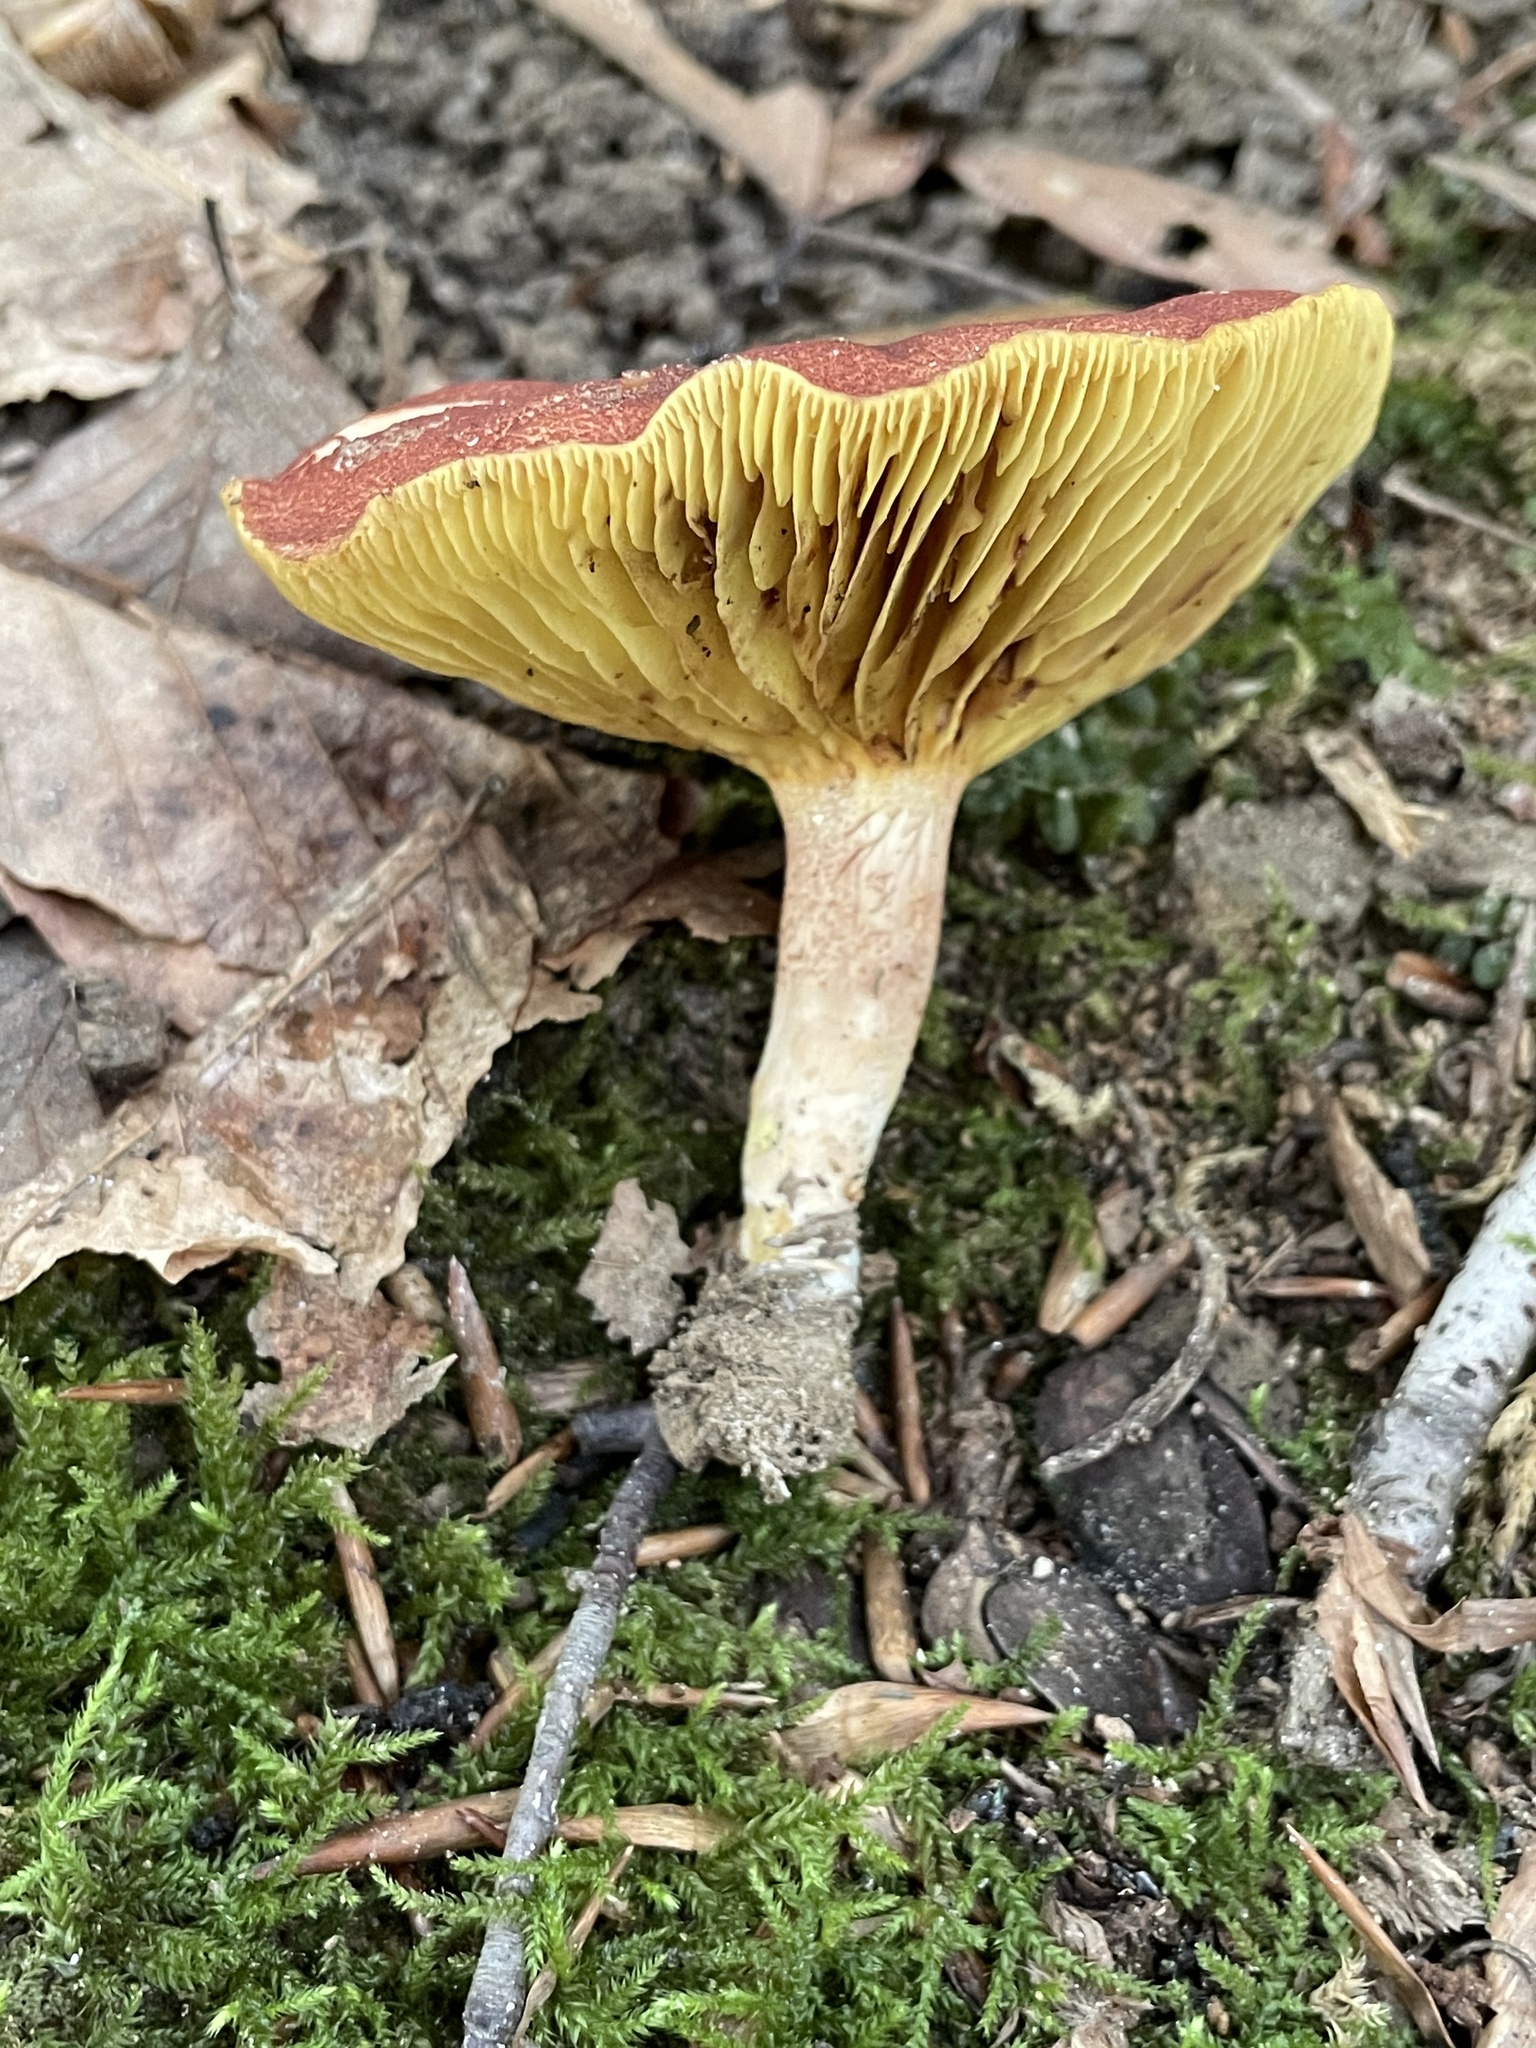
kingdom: Fungi
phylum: Basidiomycota
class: Agaricomycetes
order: Boletales
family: Boletaceae
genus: Phylloporus
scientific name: Phylloporus leucomycelinus
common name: Gilled bolete
